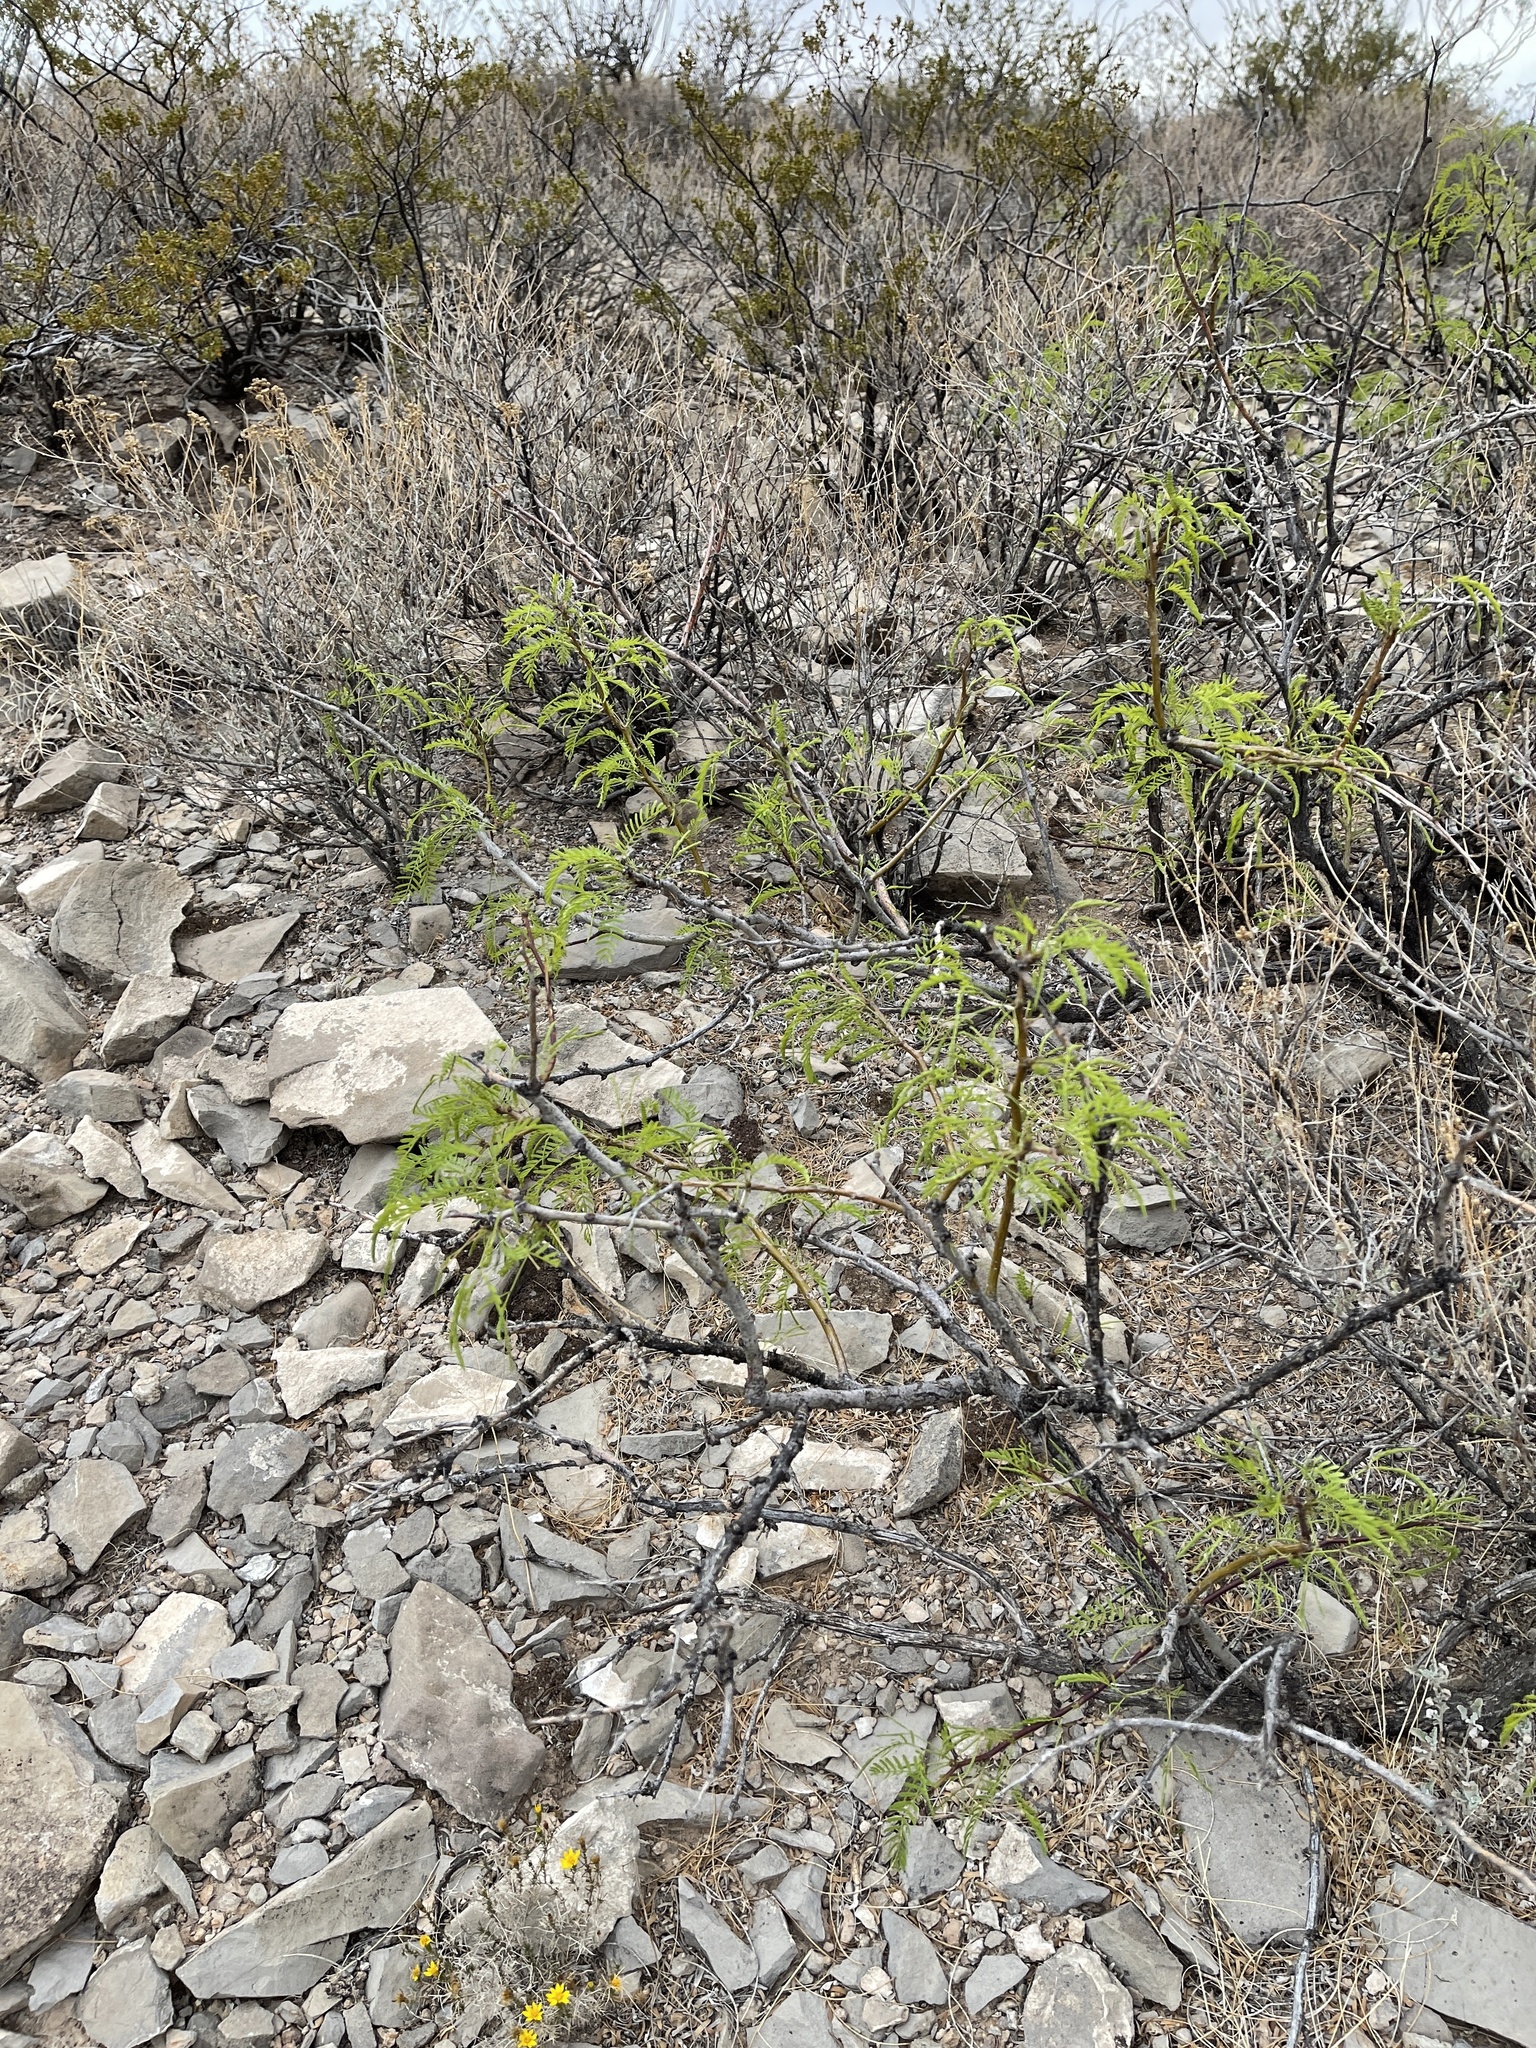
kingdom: Plantae
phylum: Tracheophyta
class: Magnoliopsida
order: Fabales
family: Fabaceae
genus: Prosopis
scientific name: Prosopis glandulosa
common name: Honey mesquite
